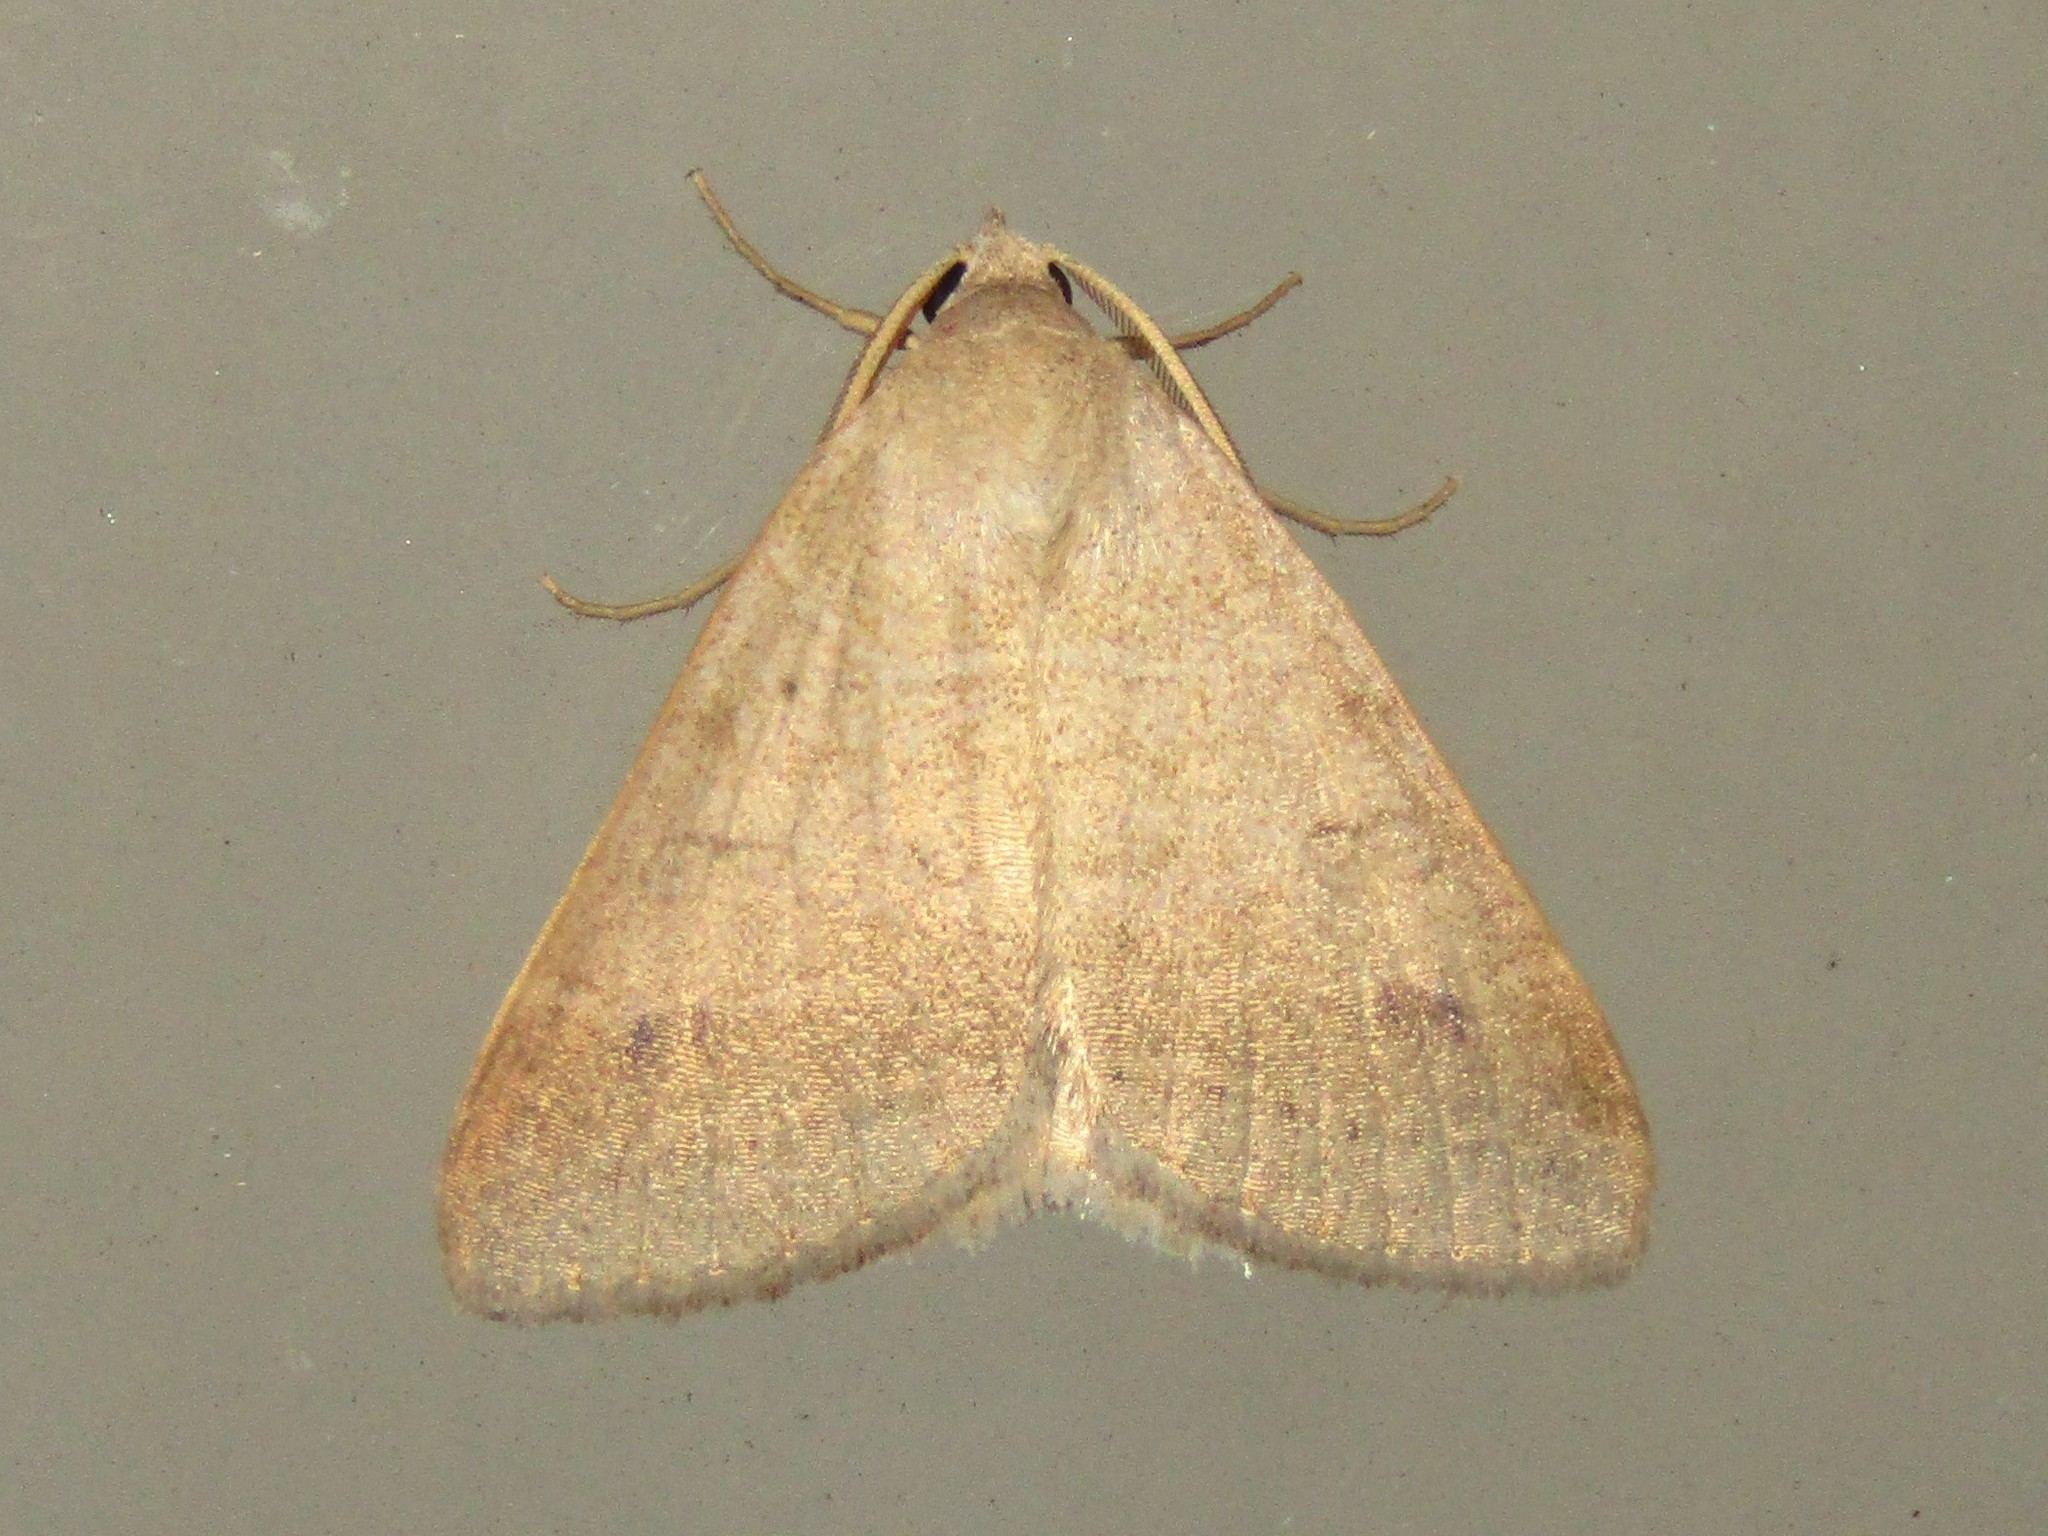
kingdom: Animalia
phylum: Arthropoda
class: Insecta
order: Lepidoptera
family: Erebidae
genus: Caenurgia
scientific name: Caenurgia chloropha
